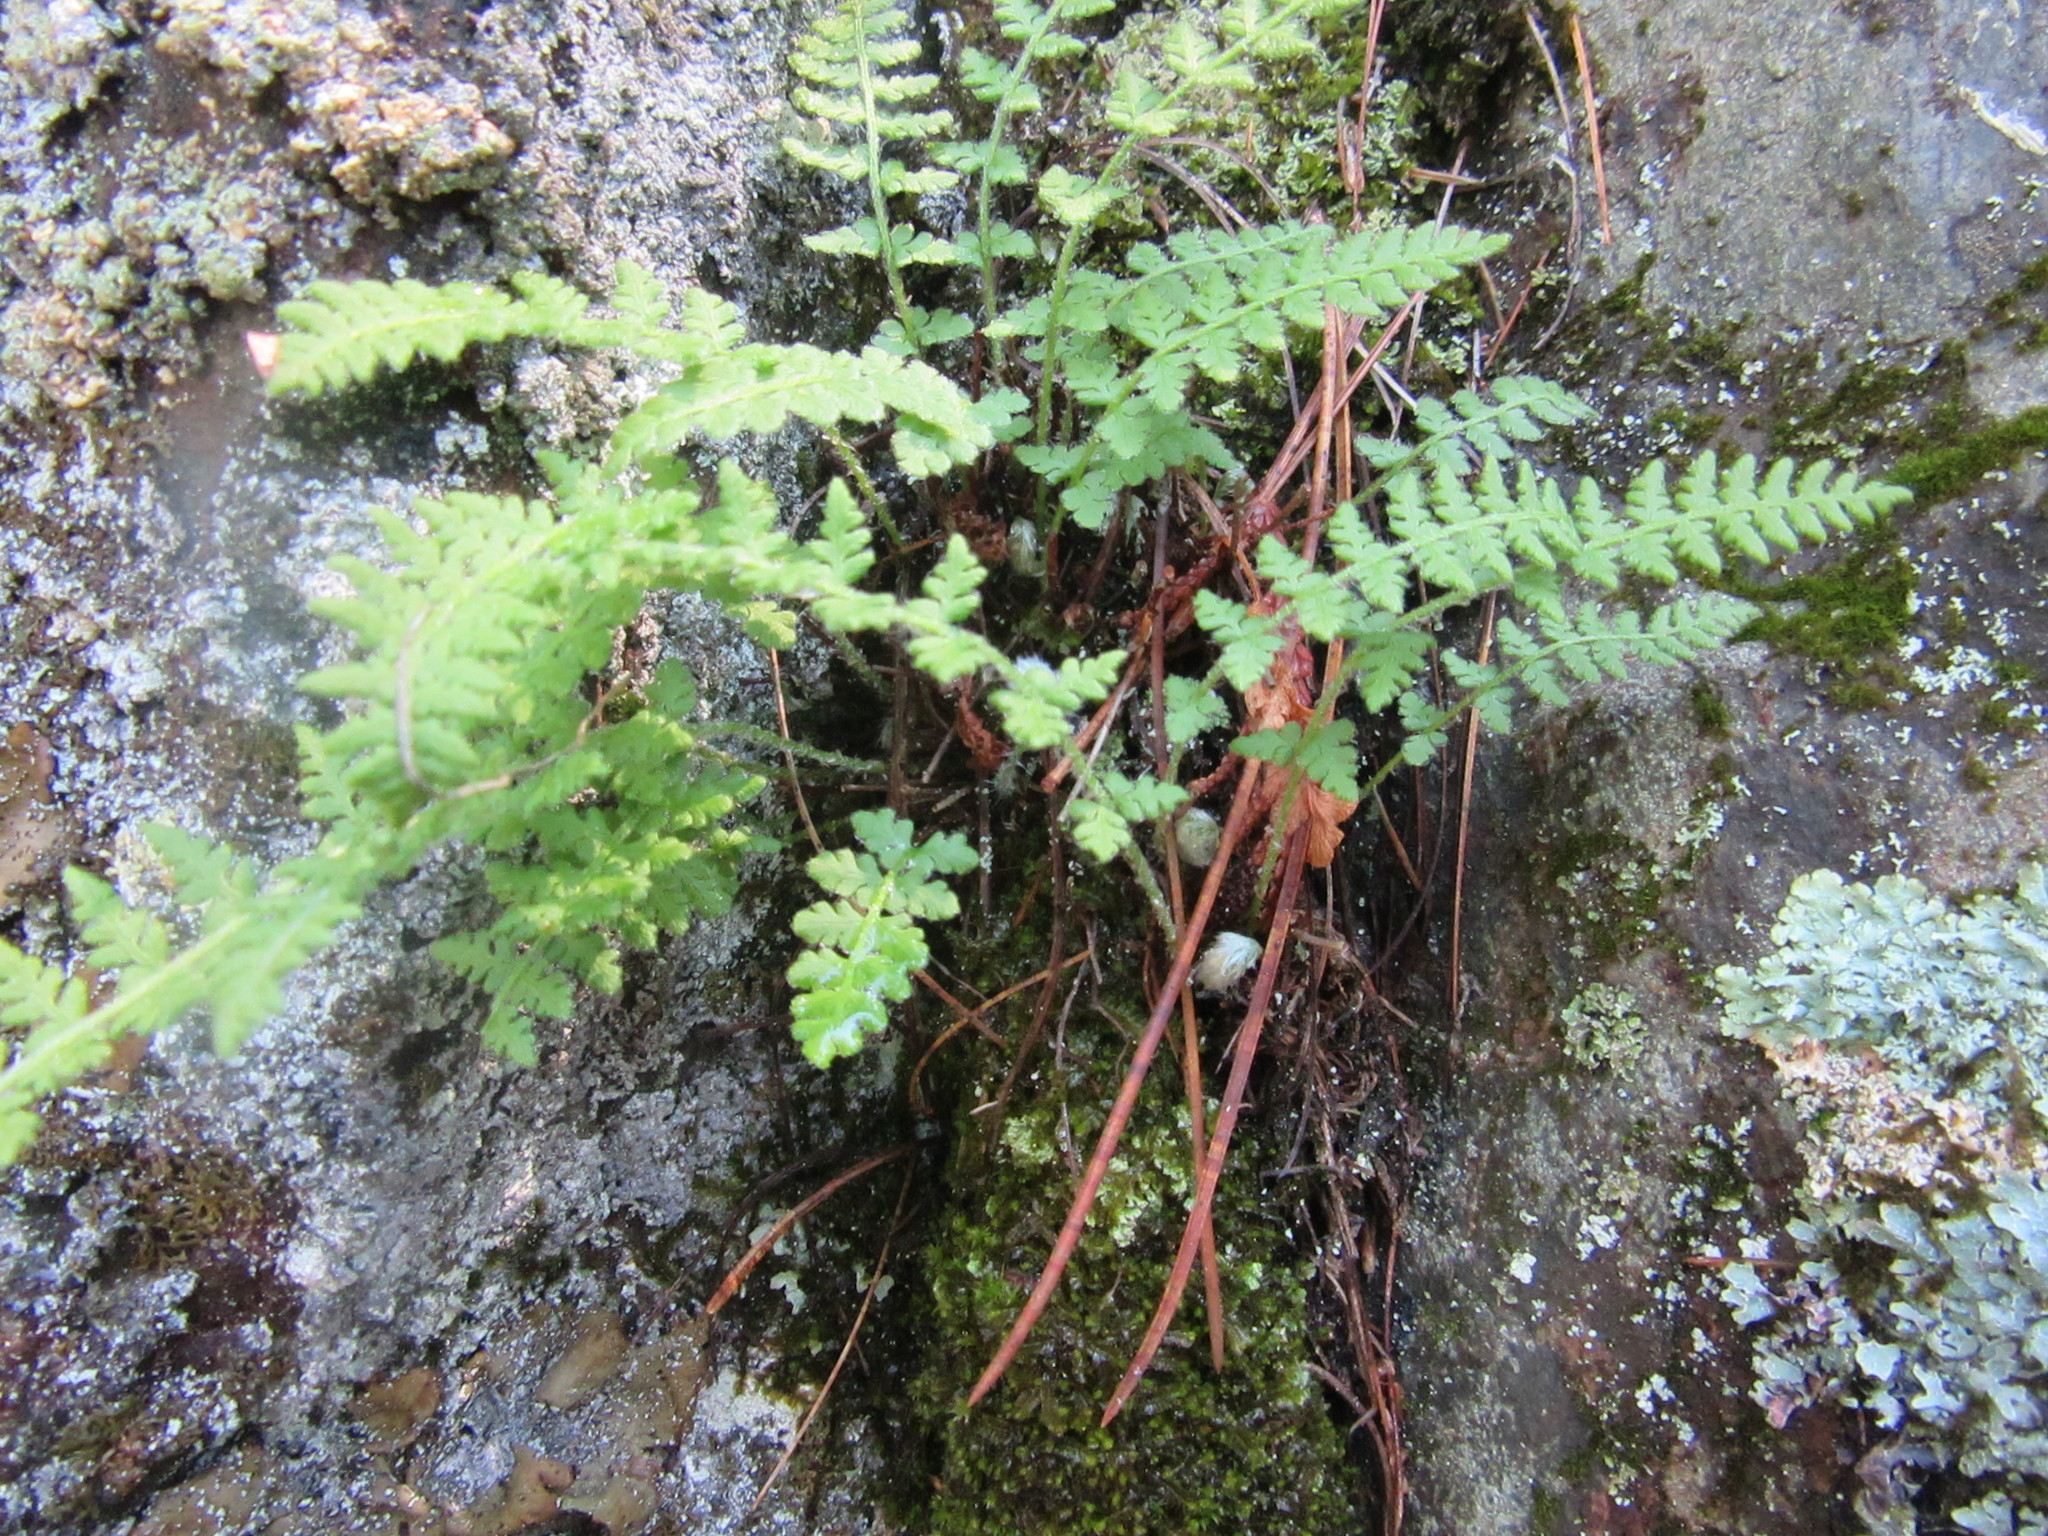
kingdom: Plantae
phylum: Tracheophyta
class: Polypodiopsida
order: Polypodiales
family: Woodsiaceae
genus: Woodsia
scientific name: Woodsia ilvensis
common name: Fragrant woodsia
